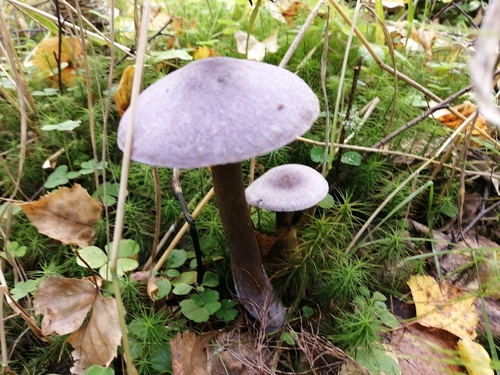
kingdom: Fungi
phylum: Basidiomycota
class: Agaricomycetes
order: Agaricales
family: Cortinariaceae
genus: Cortinarius
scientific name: Cortinarius violaceus
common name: Violet webcap
